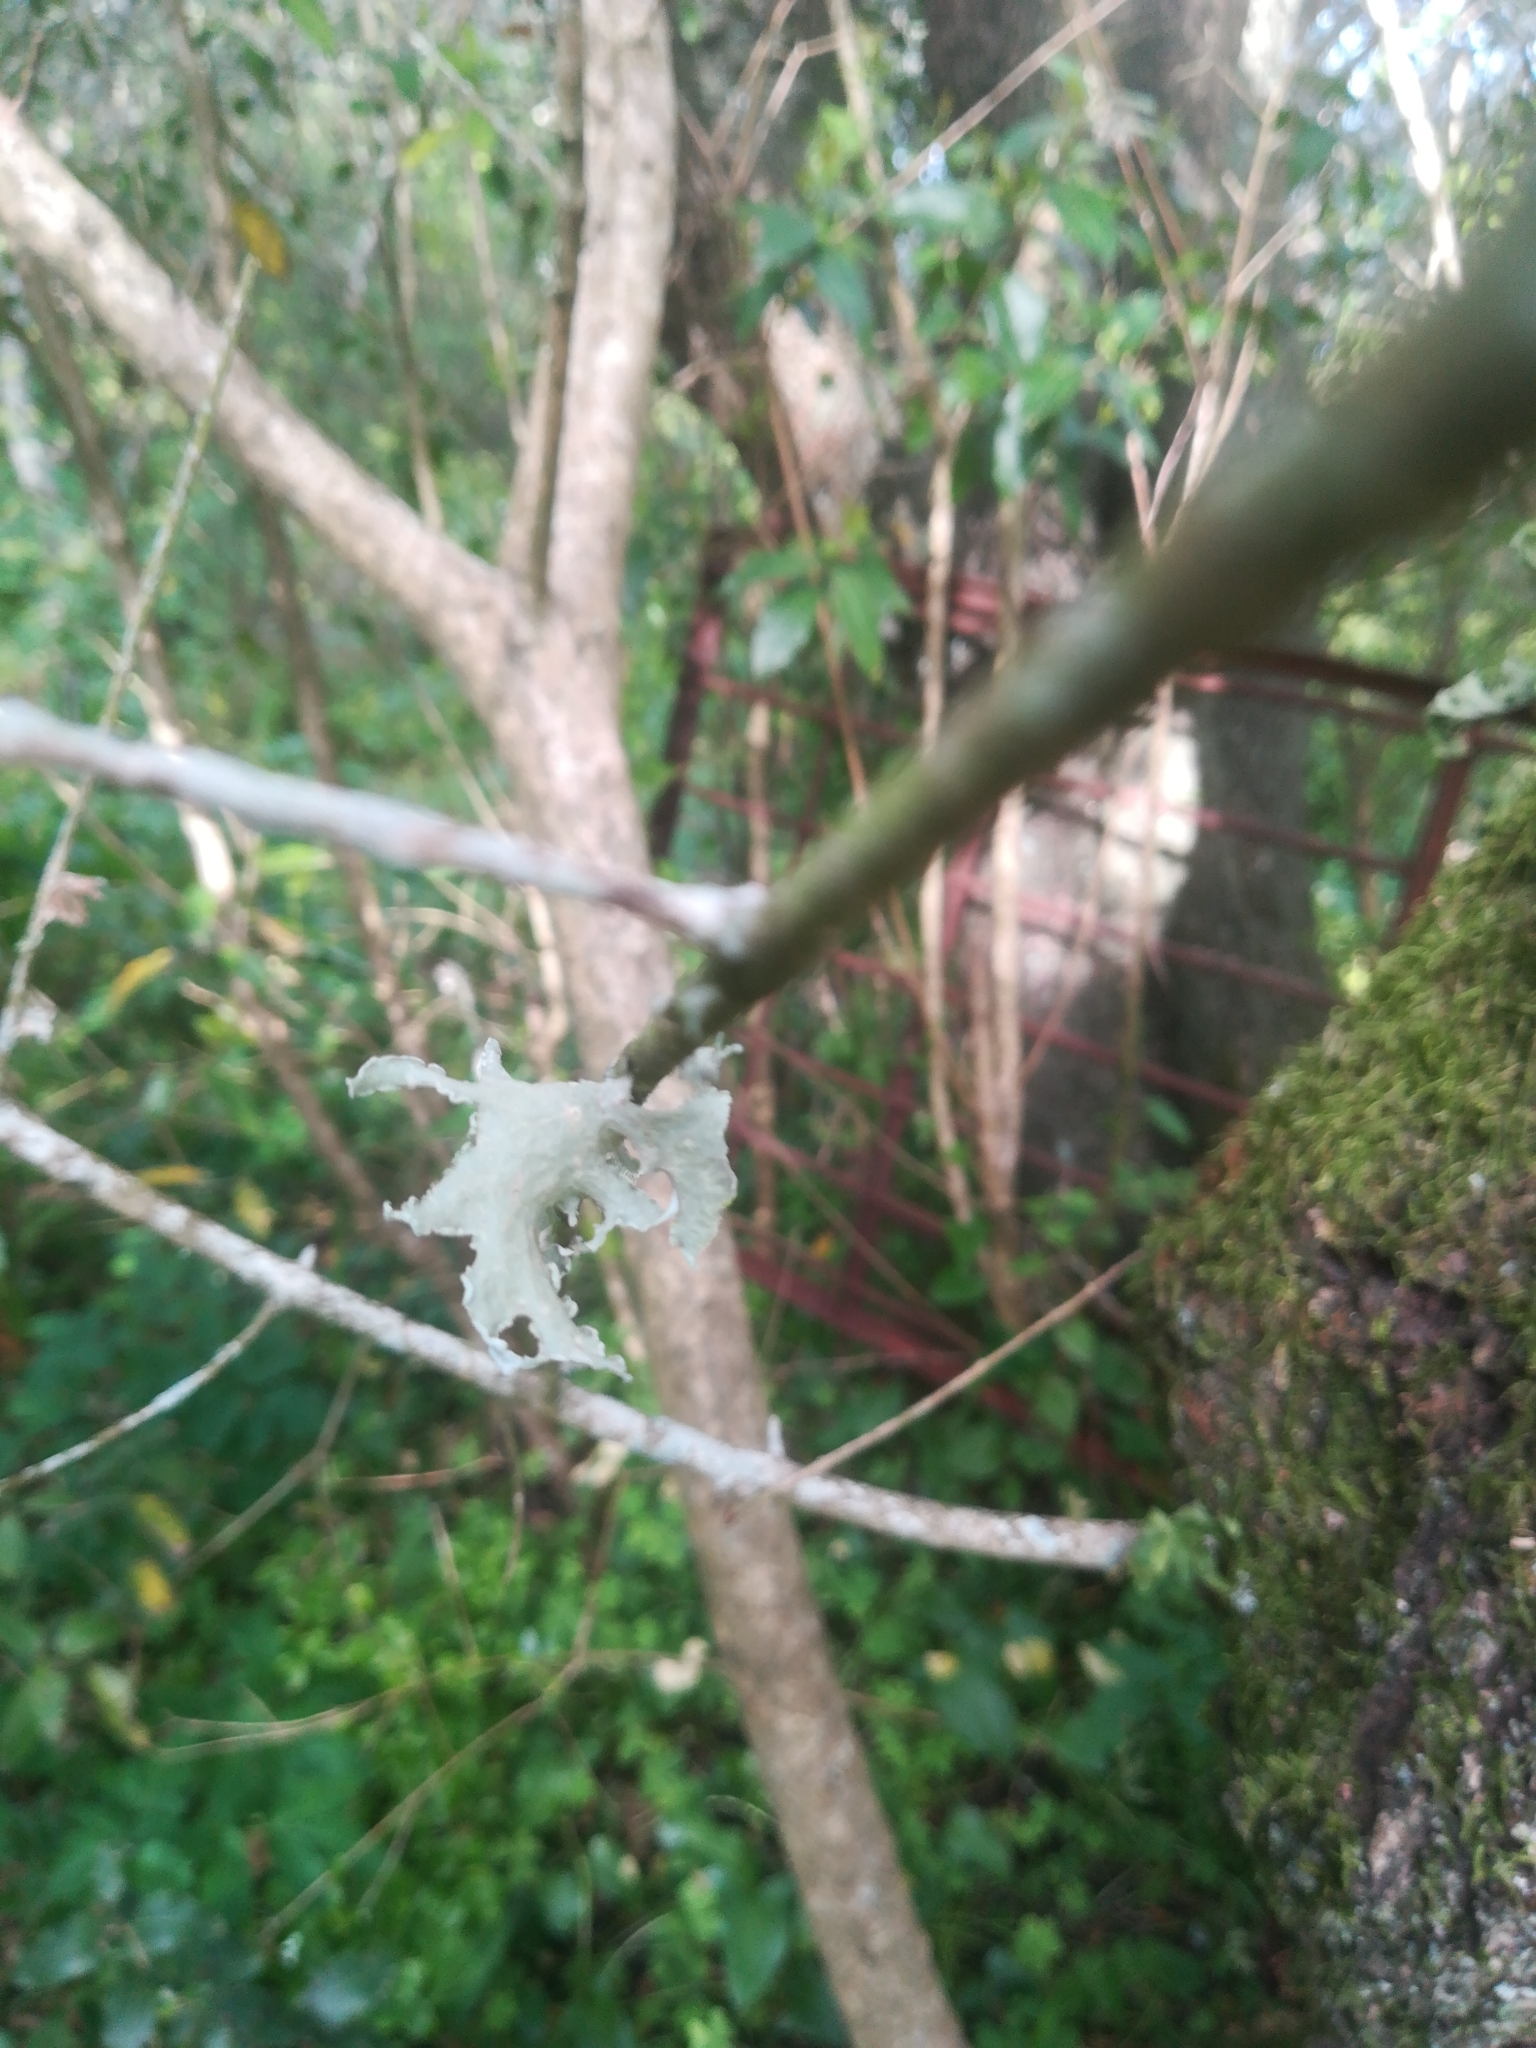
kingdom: Fungi
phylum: Ascomycota
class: Lecanoromycetes
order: Lecanorales
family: Ramalinaceae
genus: Ramalina
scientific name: Ramalina lacera
